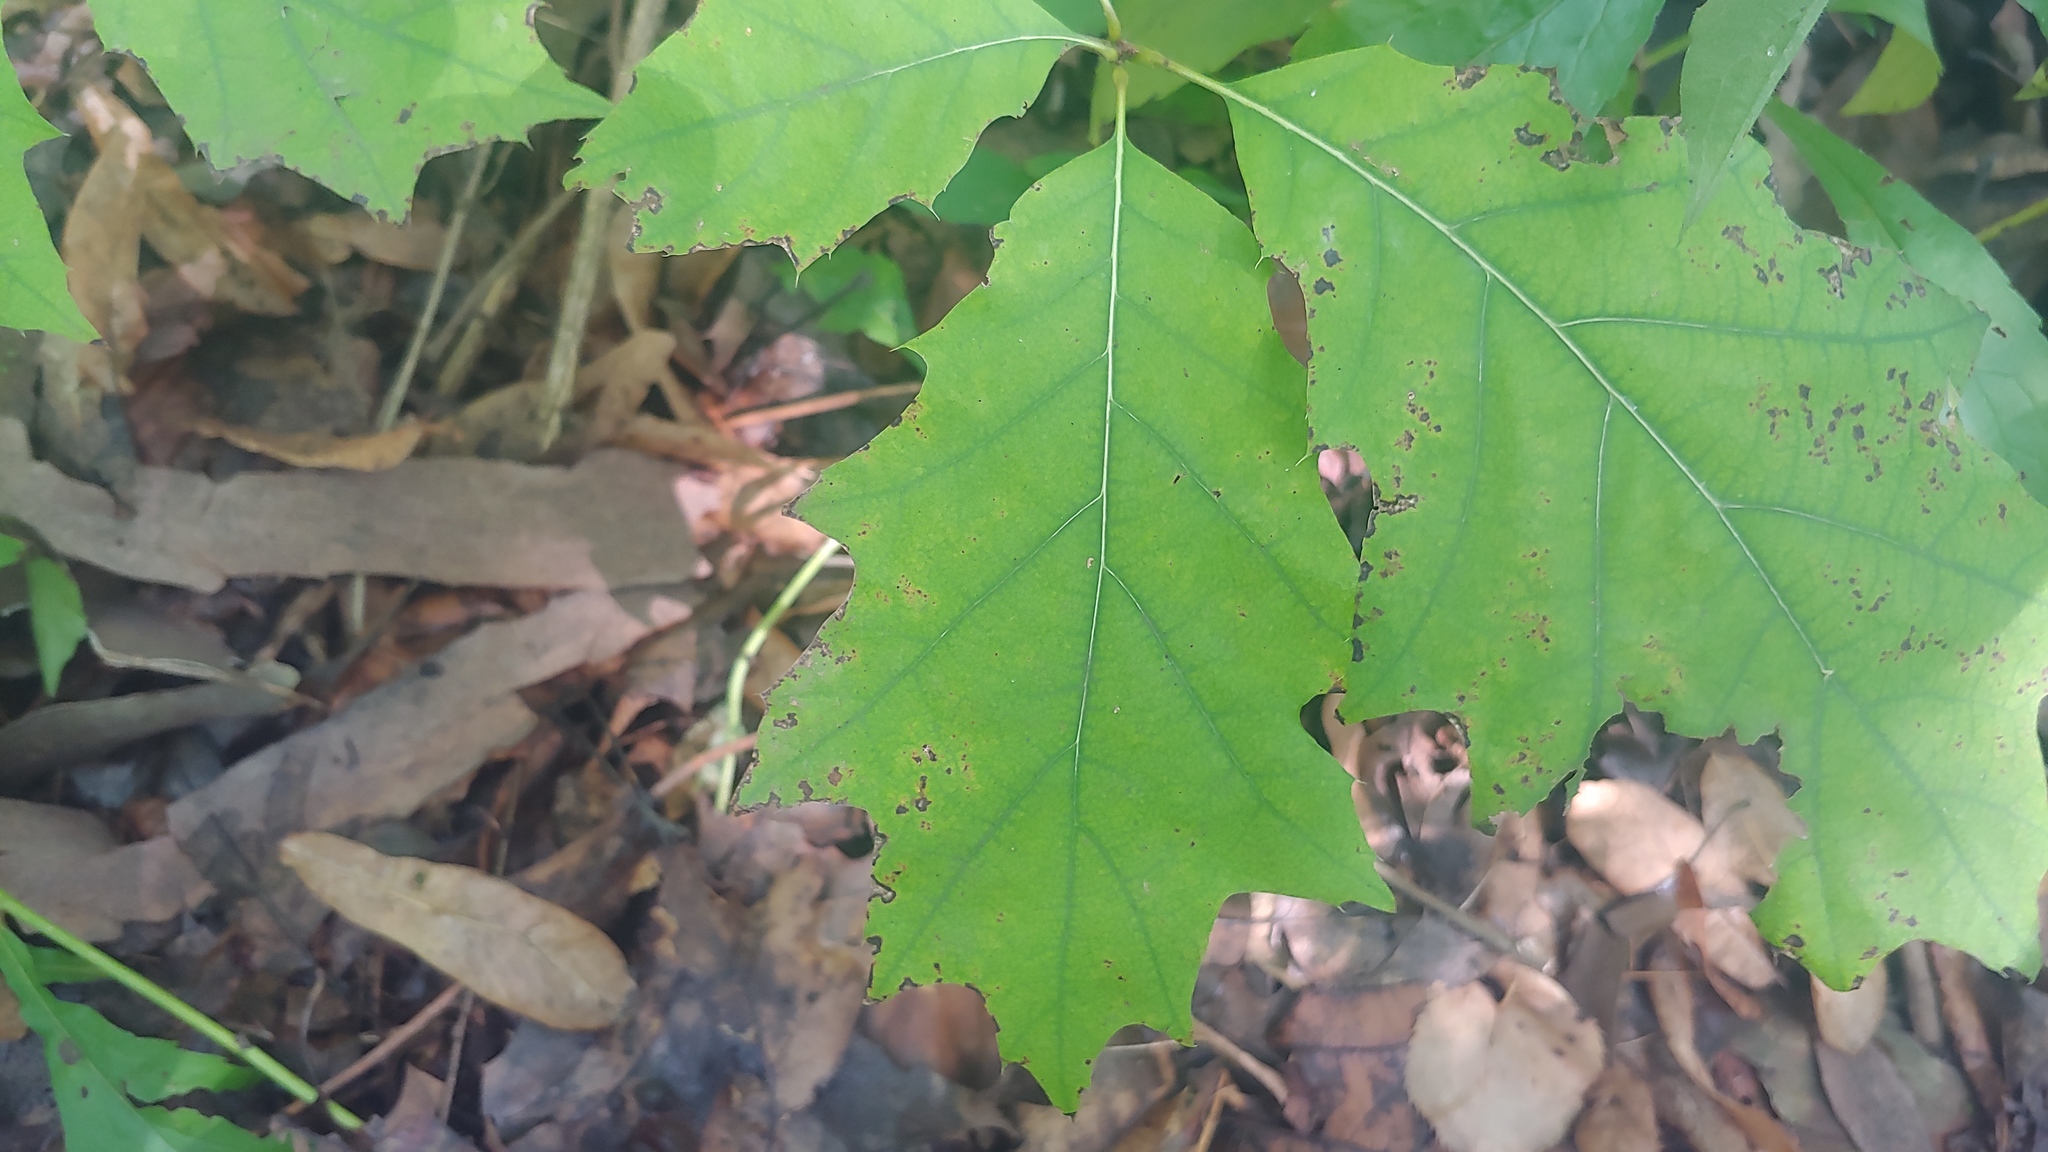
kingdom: Plantae
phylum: Tracheophyta
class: Magnoliopsida
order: Fagales
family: Fagaceae
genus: Quercus
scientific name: Quercus rubra
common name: Red oak
